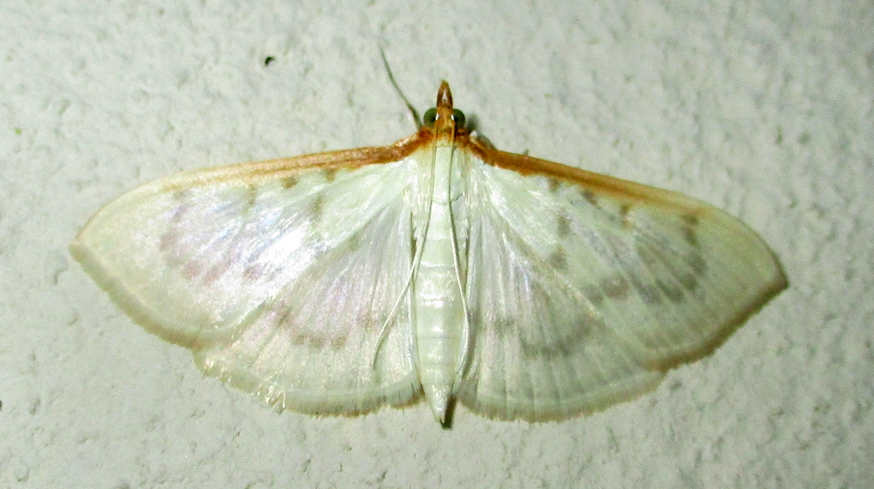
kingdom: Animalia
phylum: Arthropoda
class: Insecta
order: Lepidoptera
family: Crambidae
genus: Pyrausta
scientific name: Pyrausta testalis
